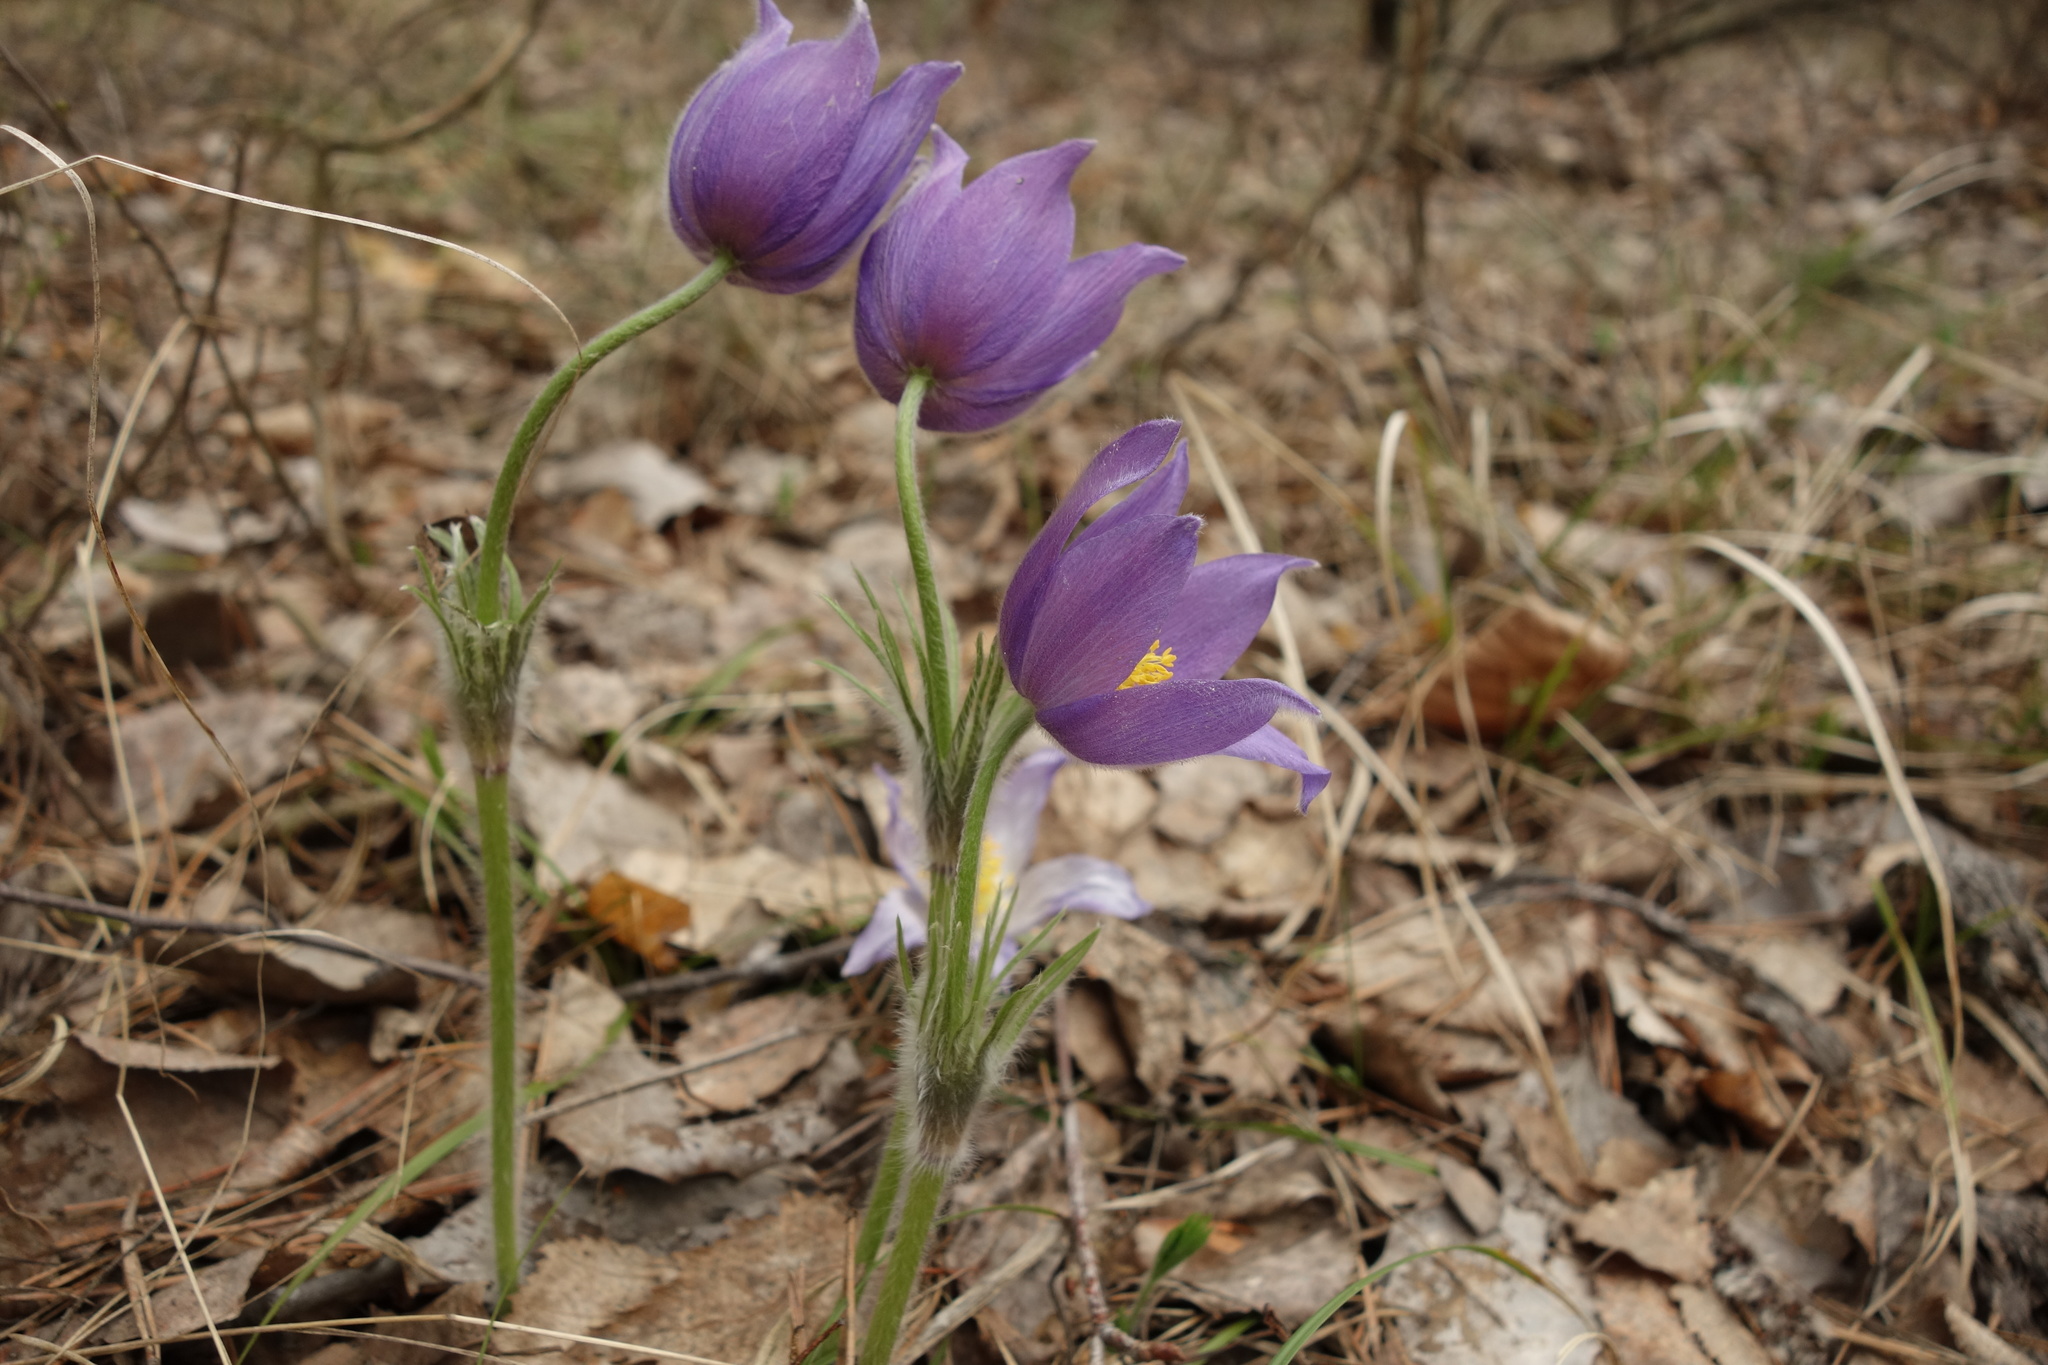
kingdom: Plantae
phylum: Tracheophyta
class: Magnoliopsida
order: Ranunculales
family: Ranunculaceae
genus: Pulsatilla
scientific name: Pulsatilla patens
